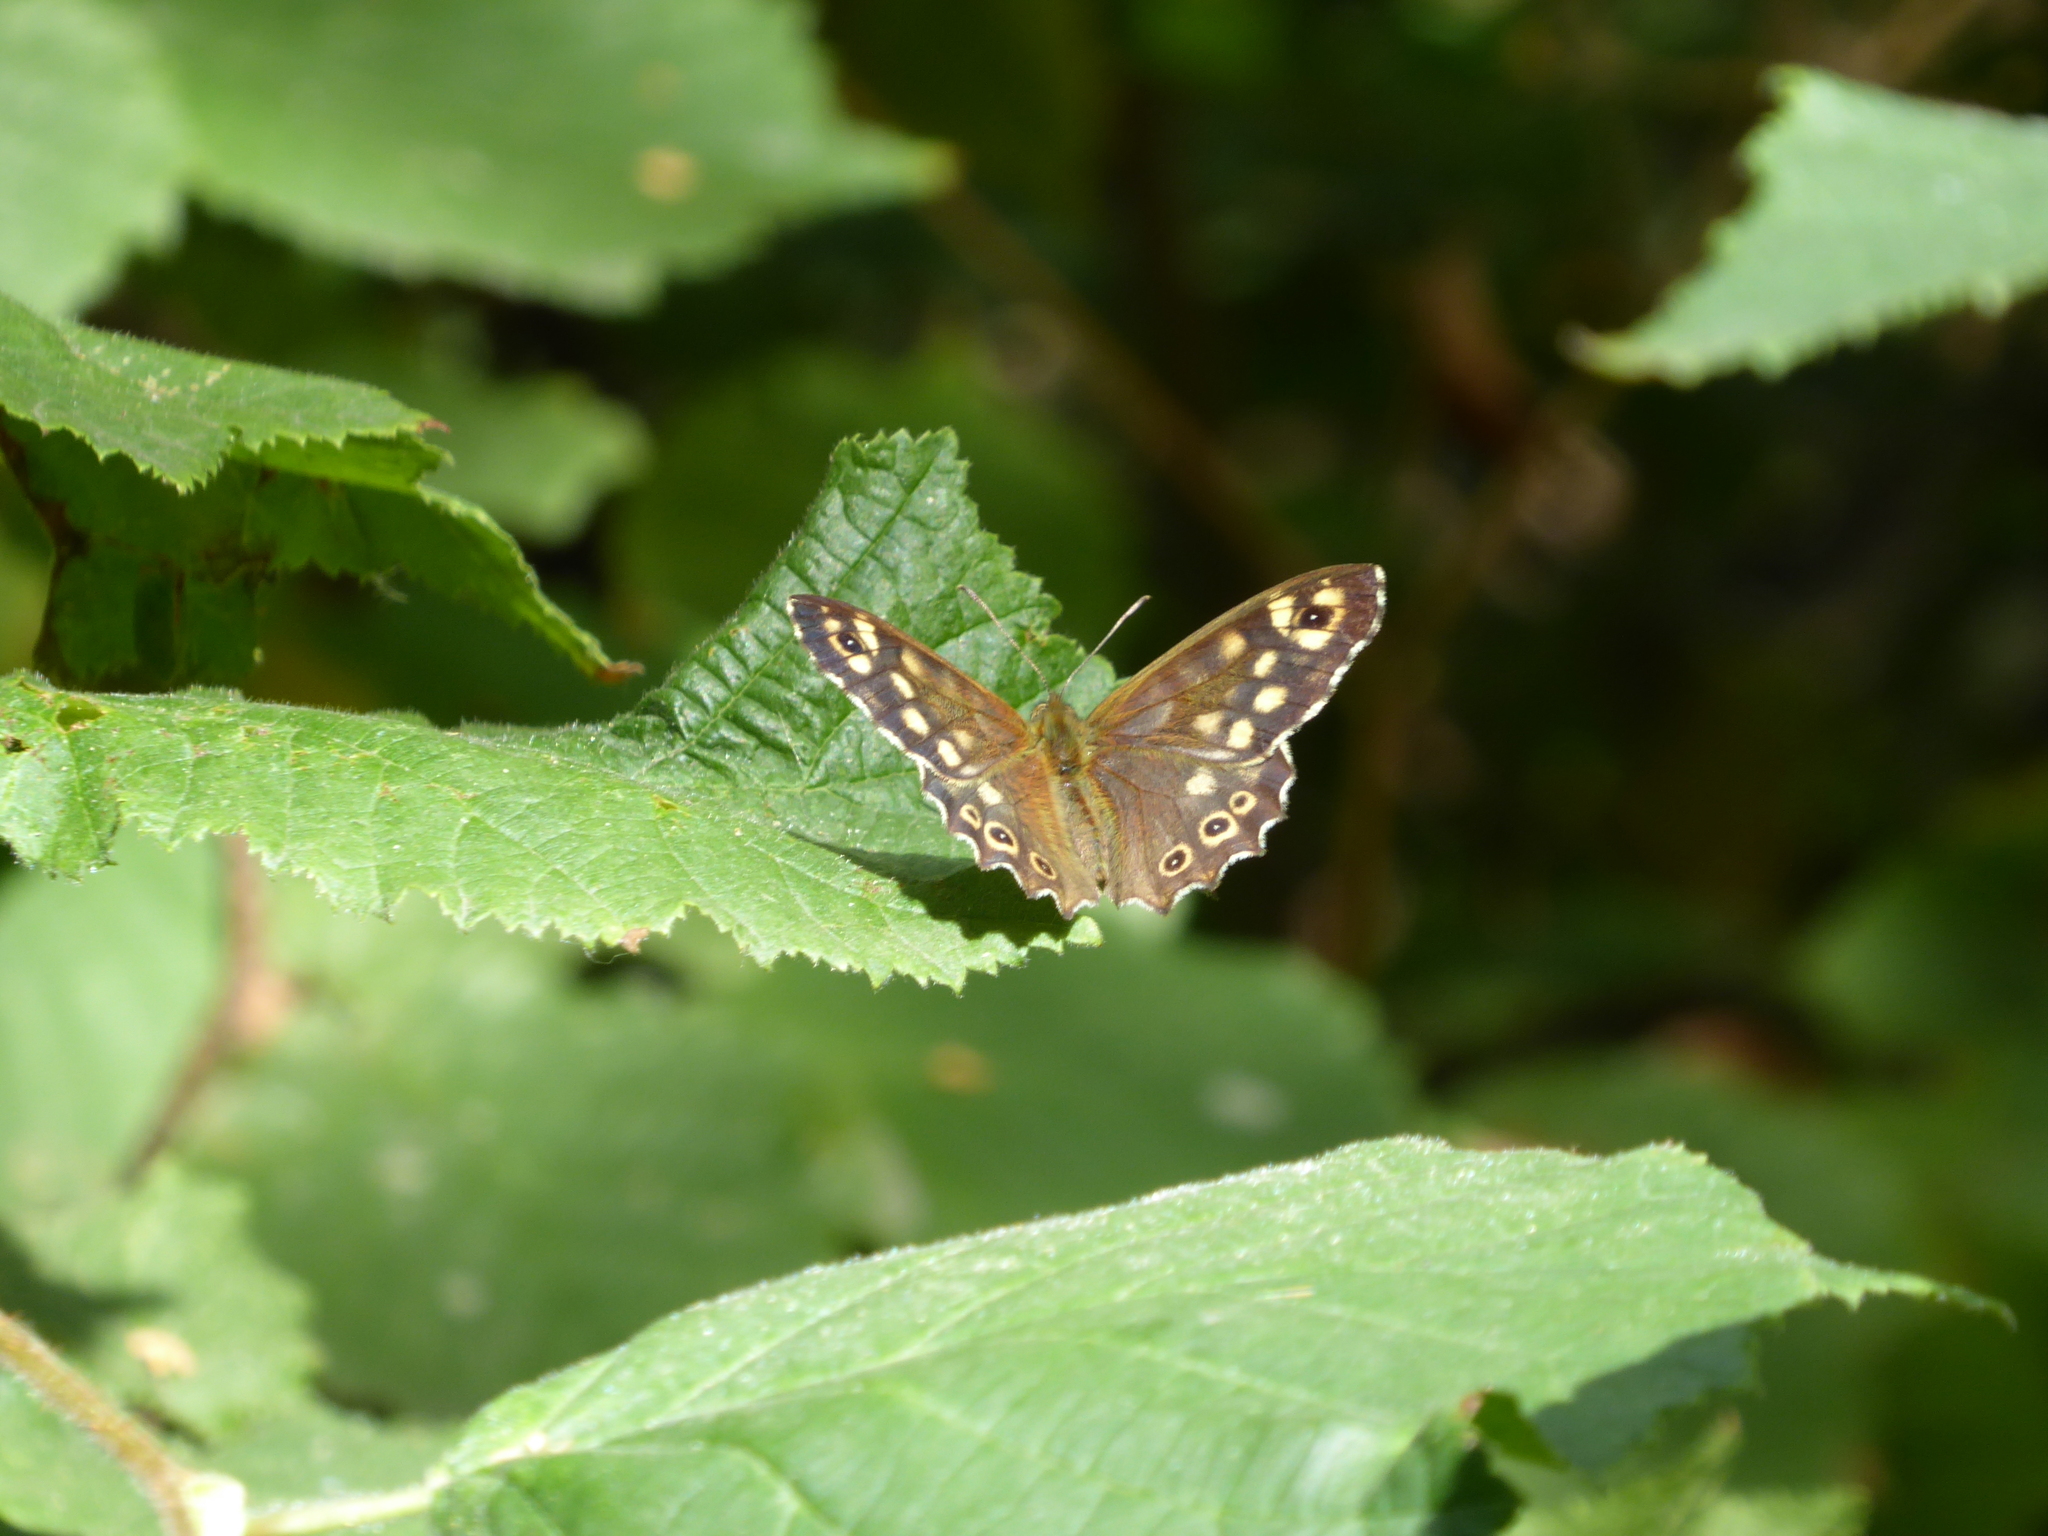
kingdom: Animalia
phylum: Arthropoda
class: Insecta
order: Lepidoptera
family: Nymphalidae
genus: Pararge
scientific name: Pararge aegeria
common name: Speckled wood
